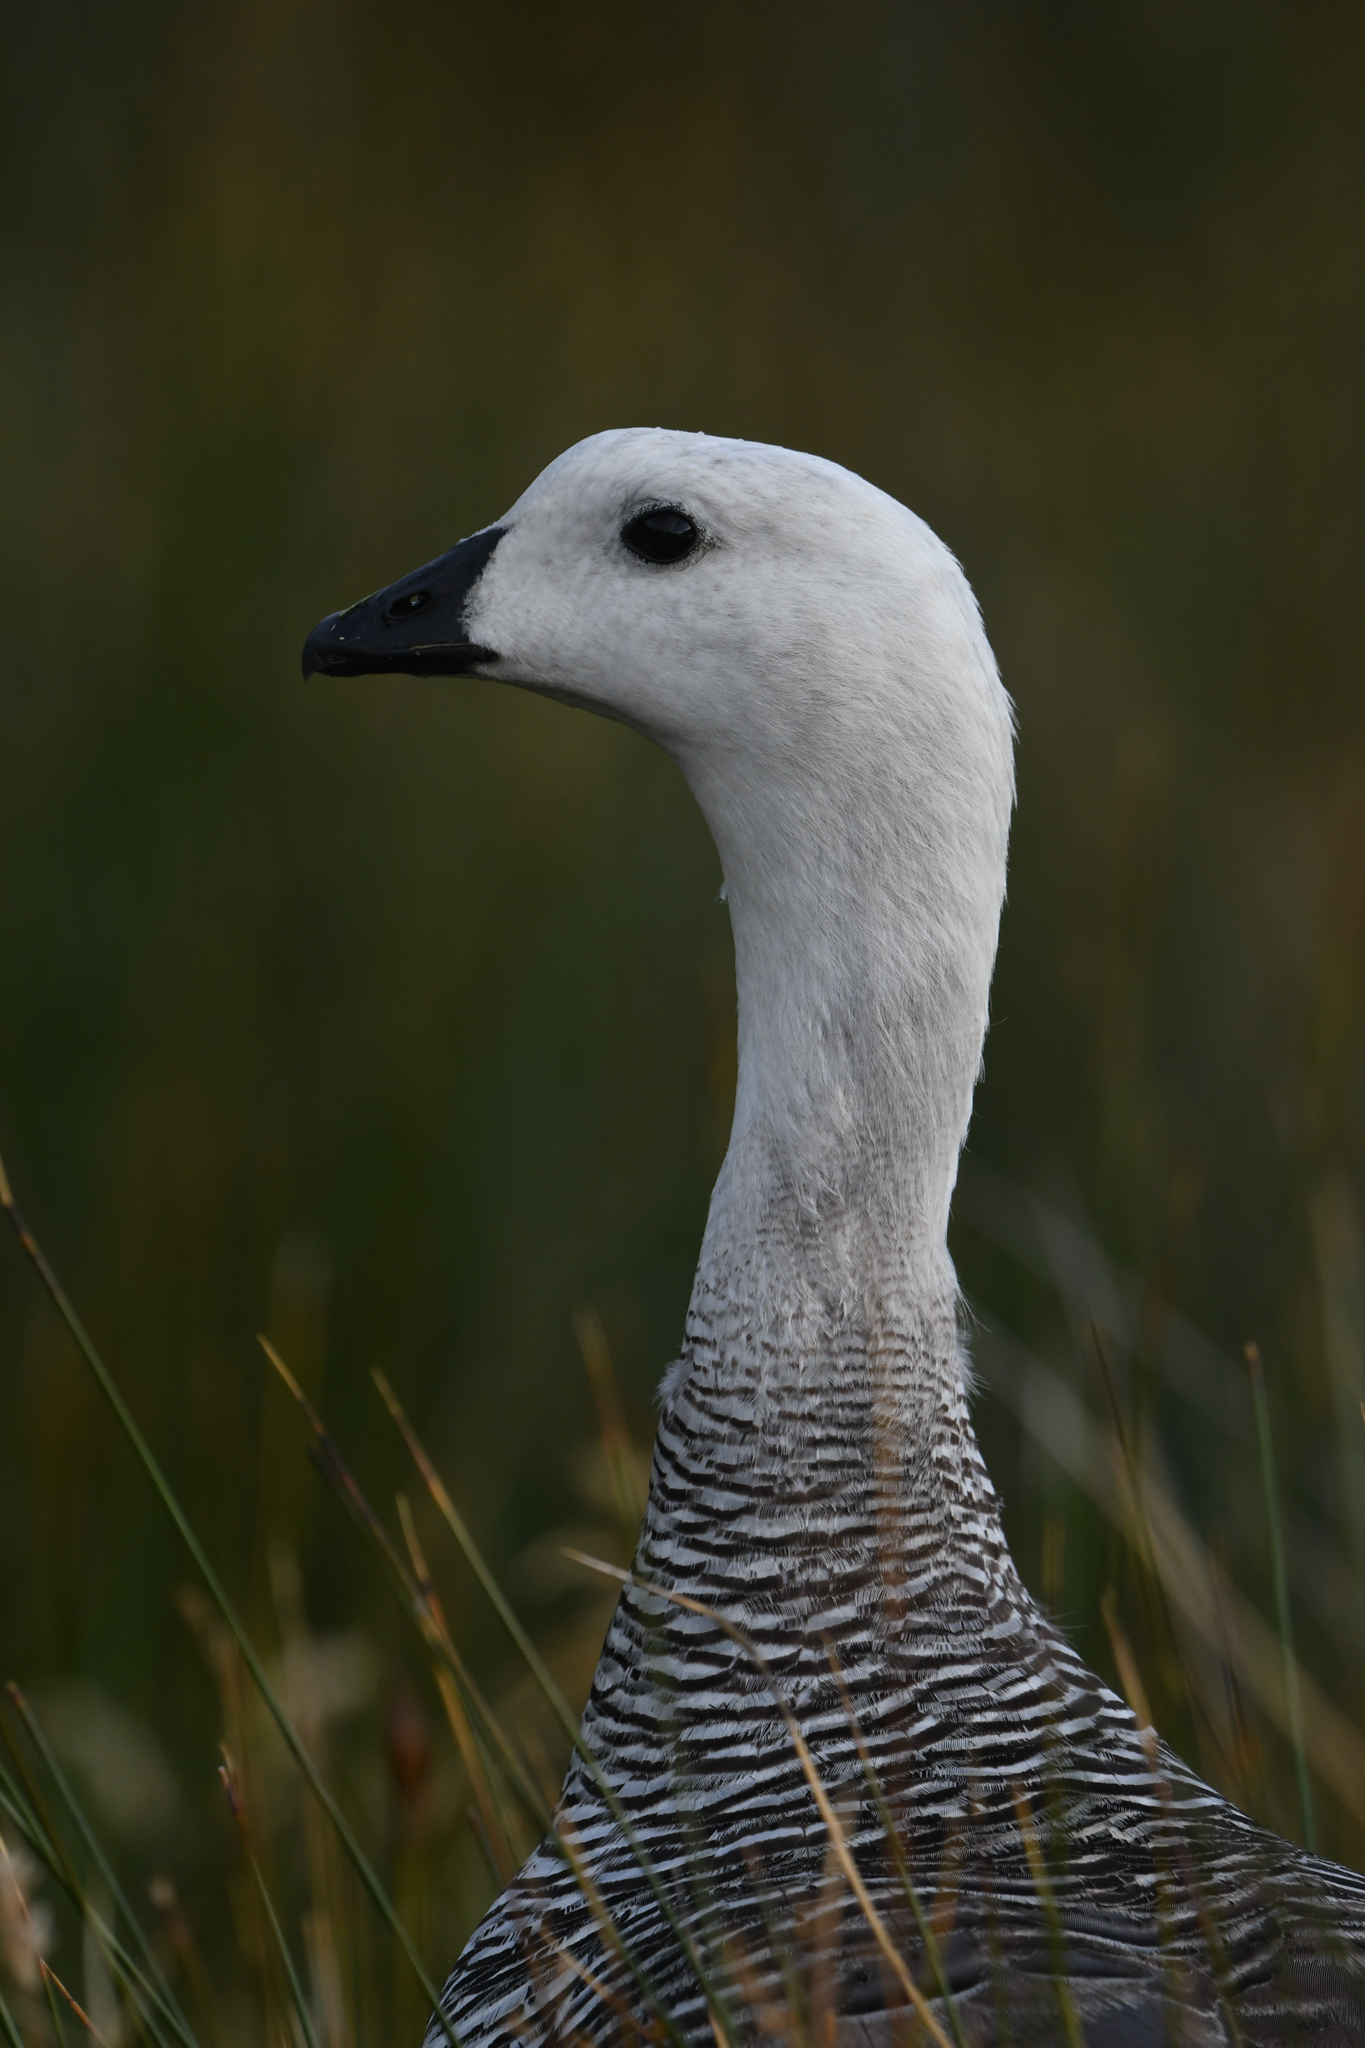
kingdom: Animalia
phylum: Chordata
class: Aves
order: Anseriformes
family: Anatidae
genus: Chloephaga
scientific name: Chloephaga picta
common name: Upland goose
